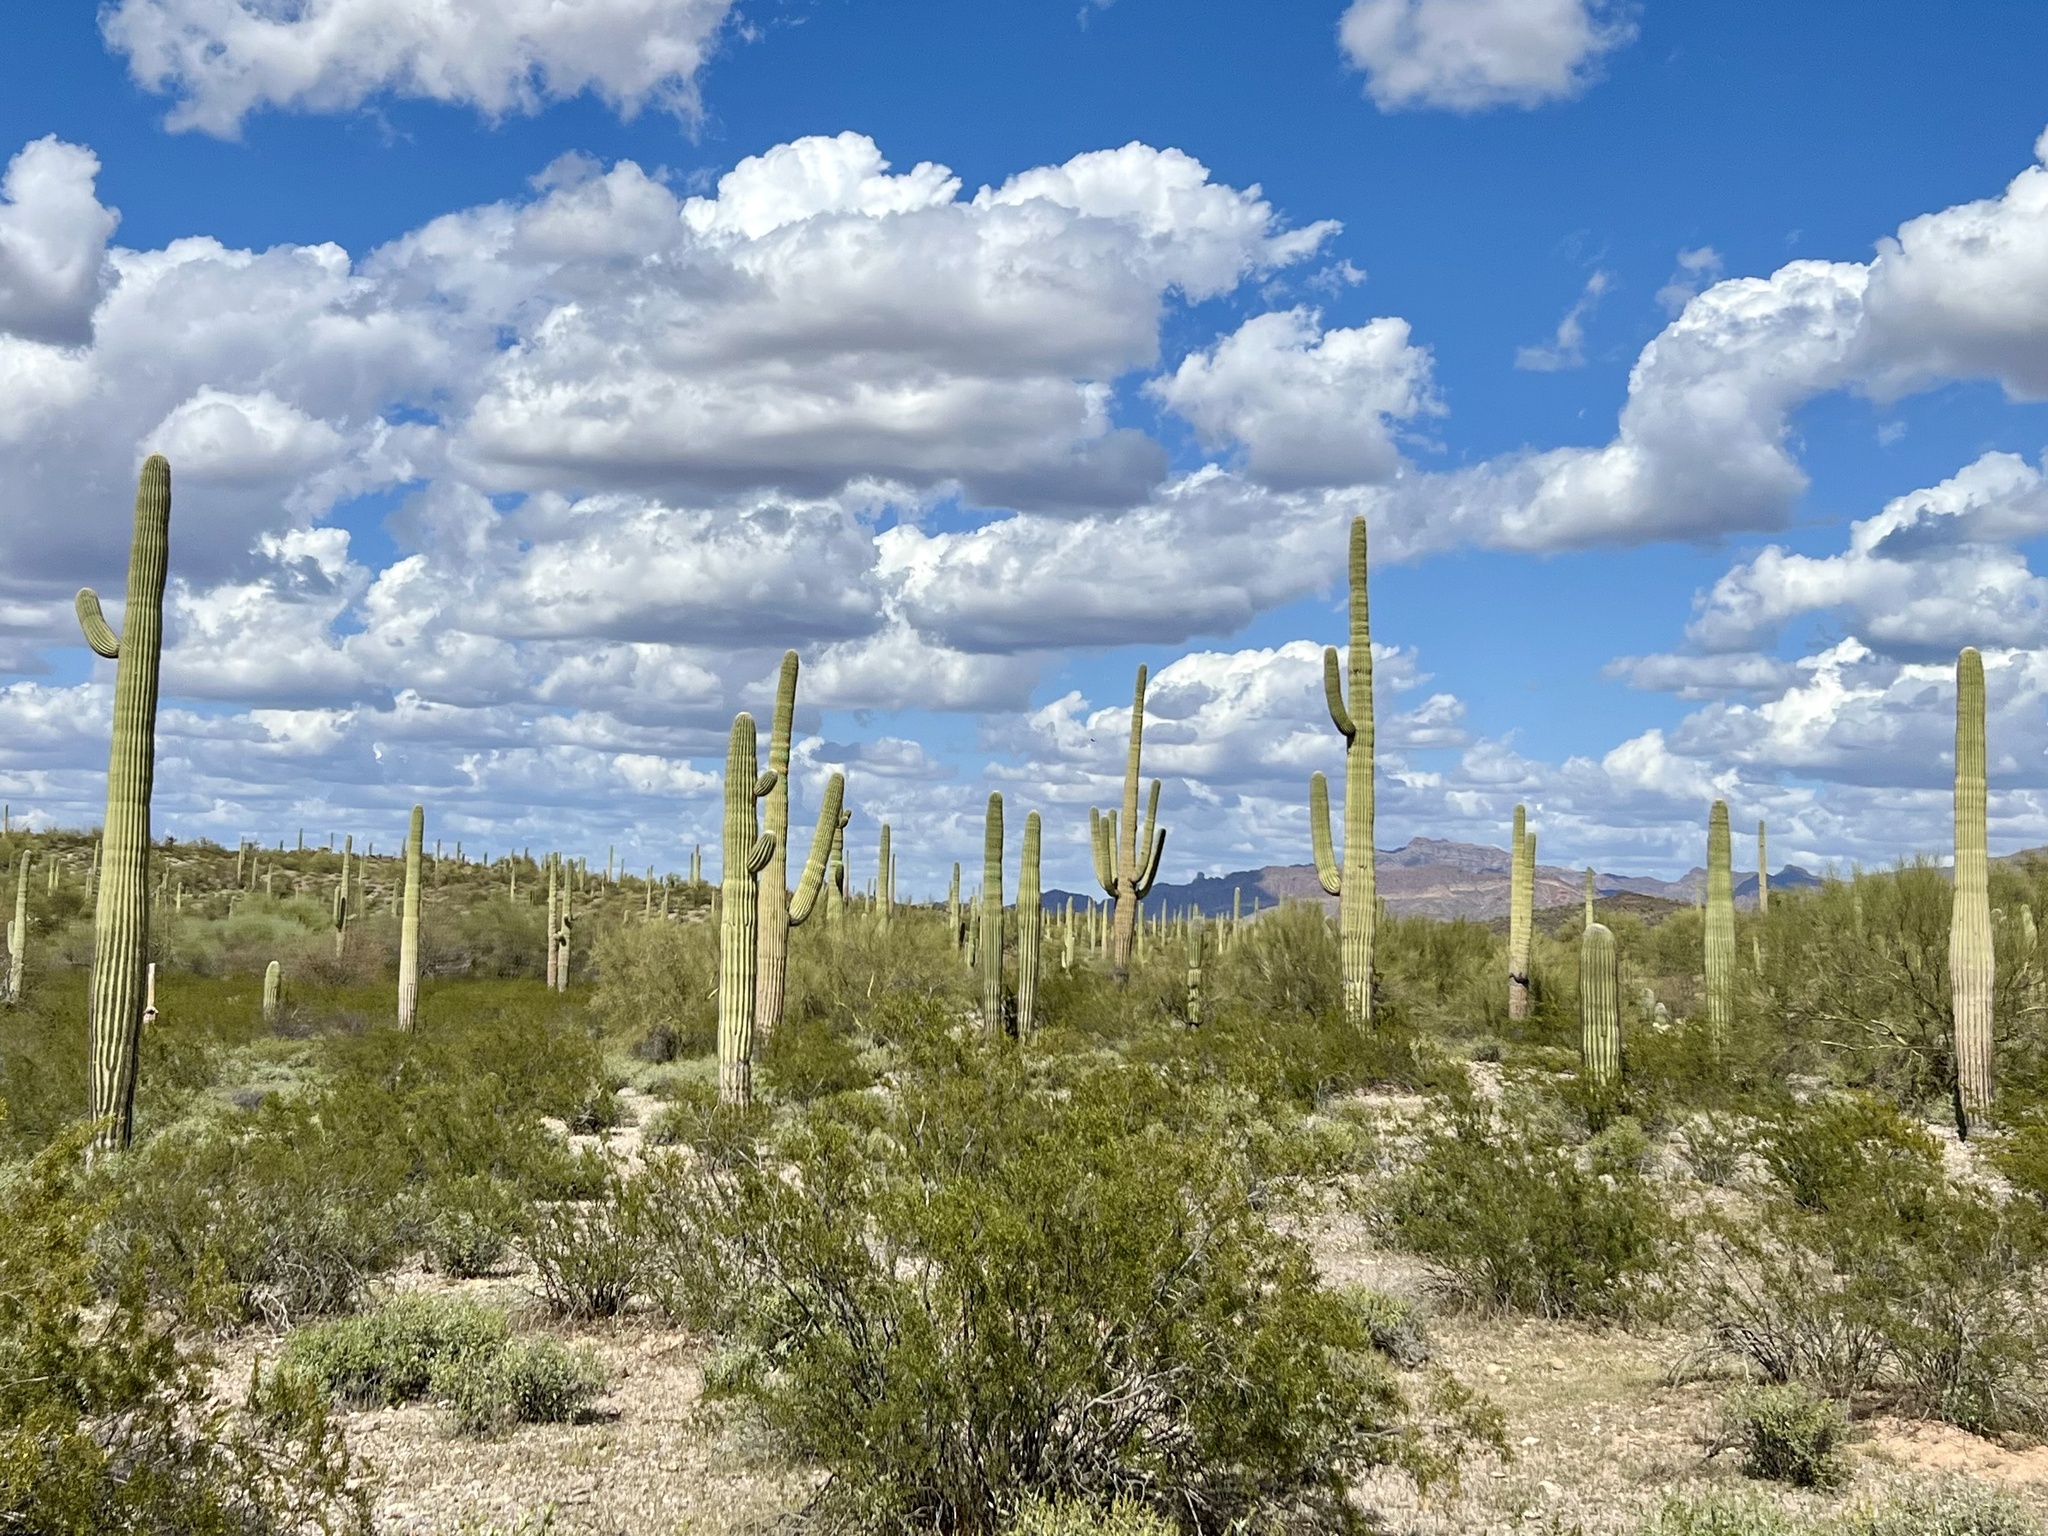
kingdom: Plantae
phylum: Tracheophyta
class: Magnoliopsida
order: Caryophyllales
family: Cactaceae
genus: Carnegiea
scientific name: Carnegiea gigantea
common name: Saguaro
